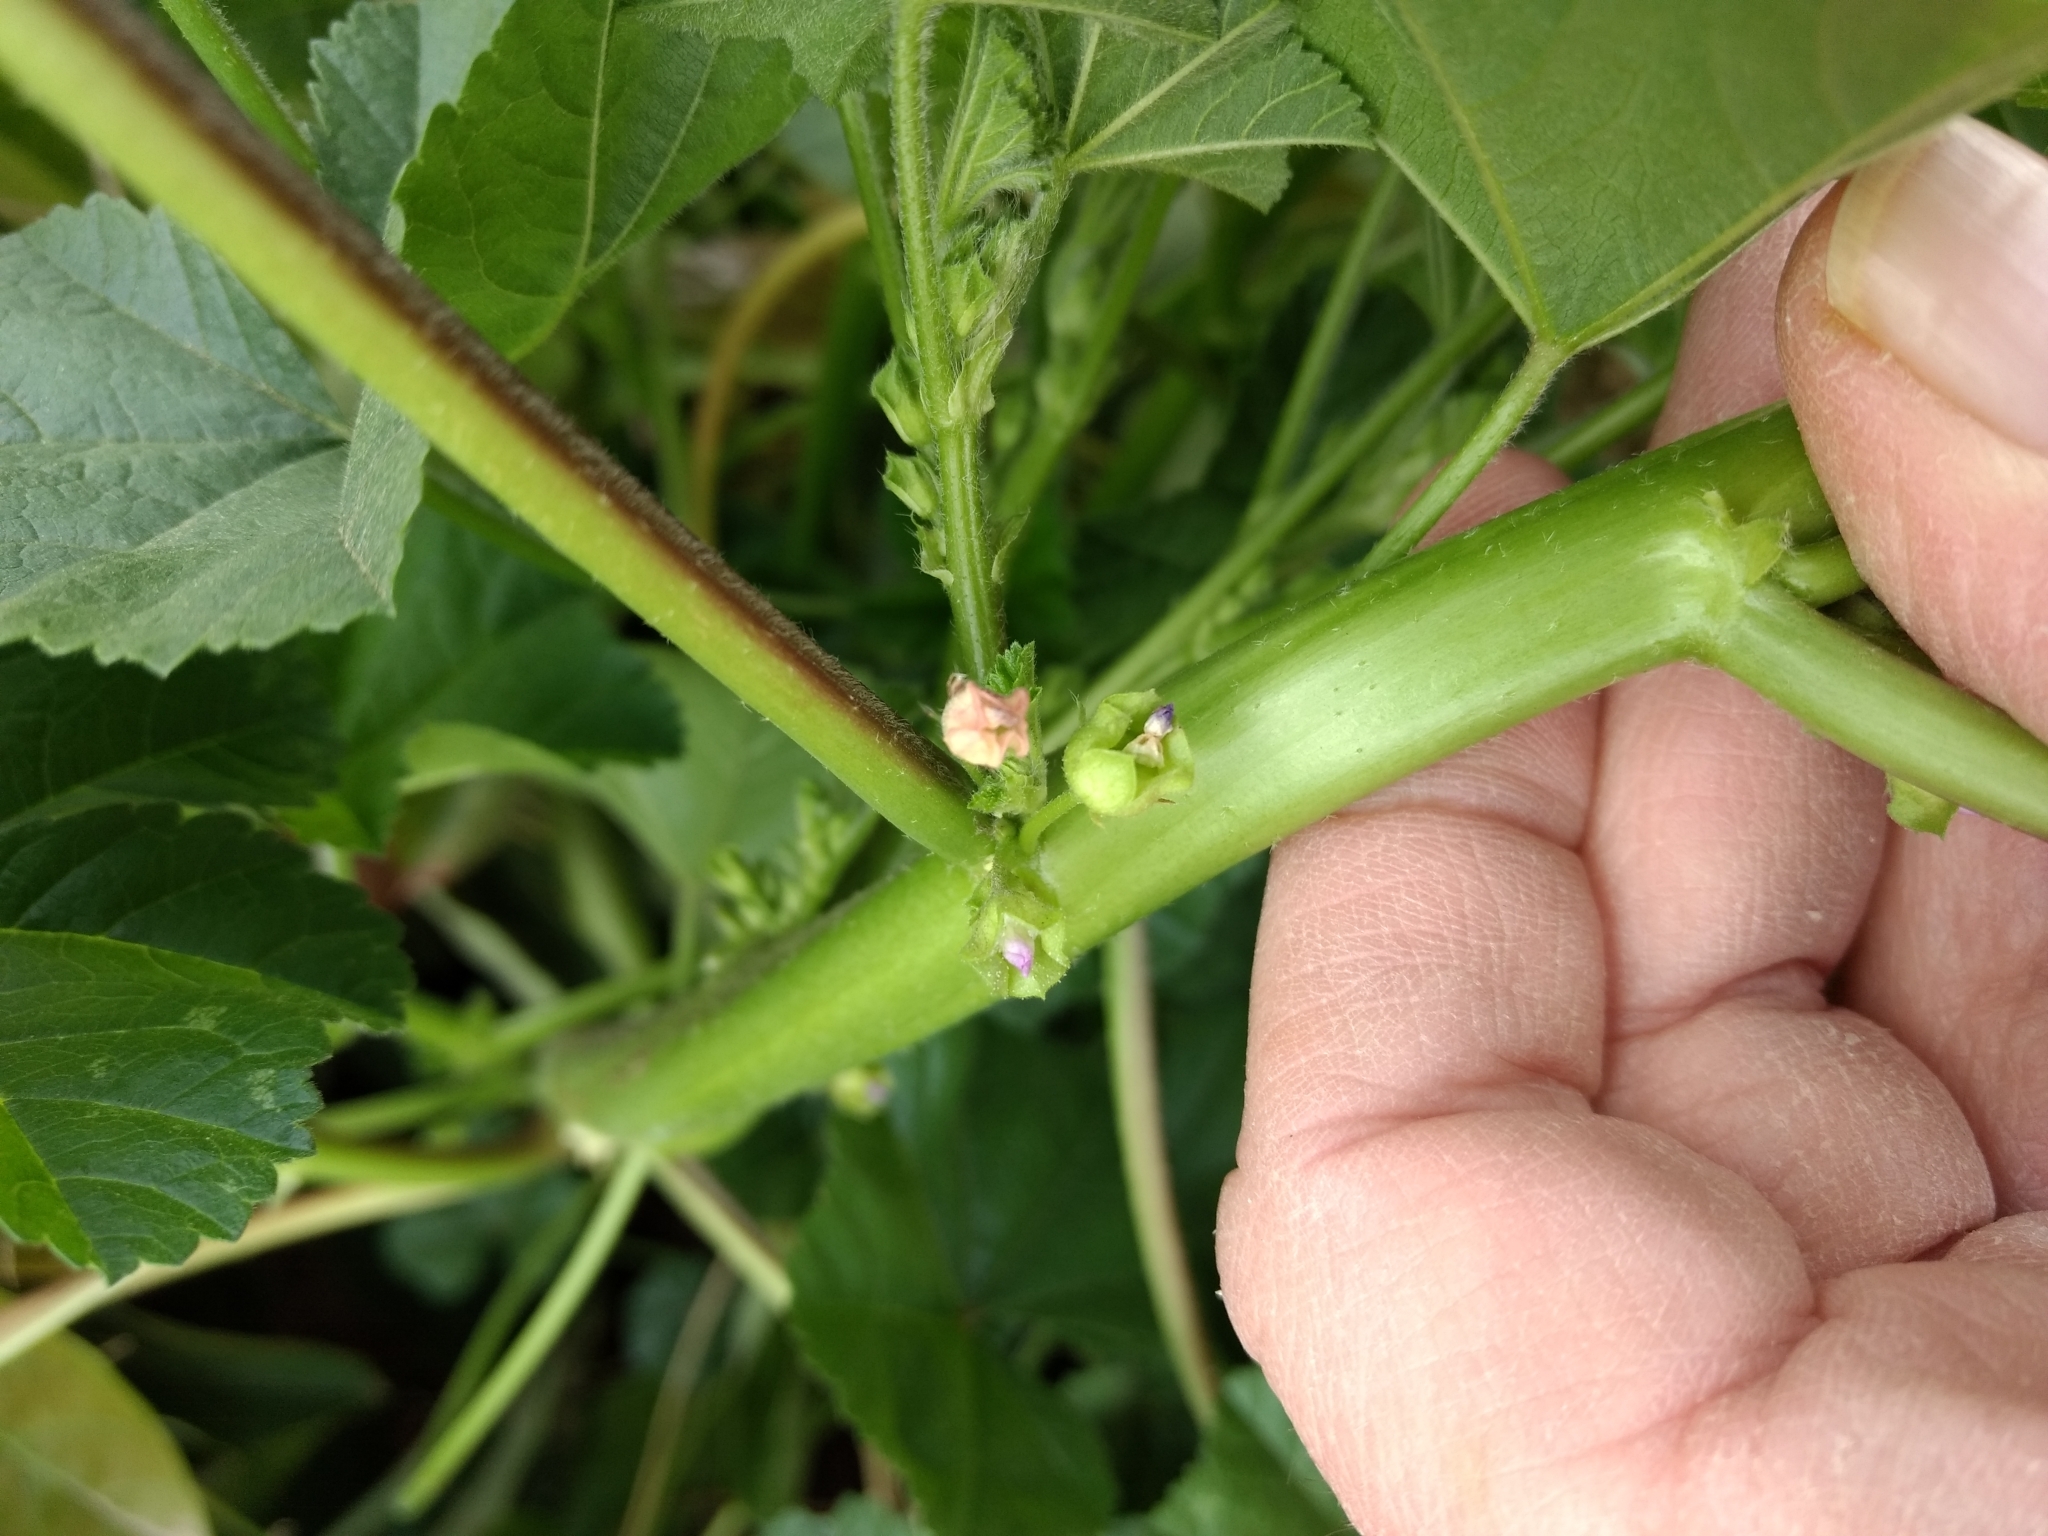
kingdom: Plantae
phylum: Tracheophyta
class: Magnoliopsida
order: Malvales
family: Malvaceae
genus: Malva
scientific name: Malva parviflora
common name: Least mallow
